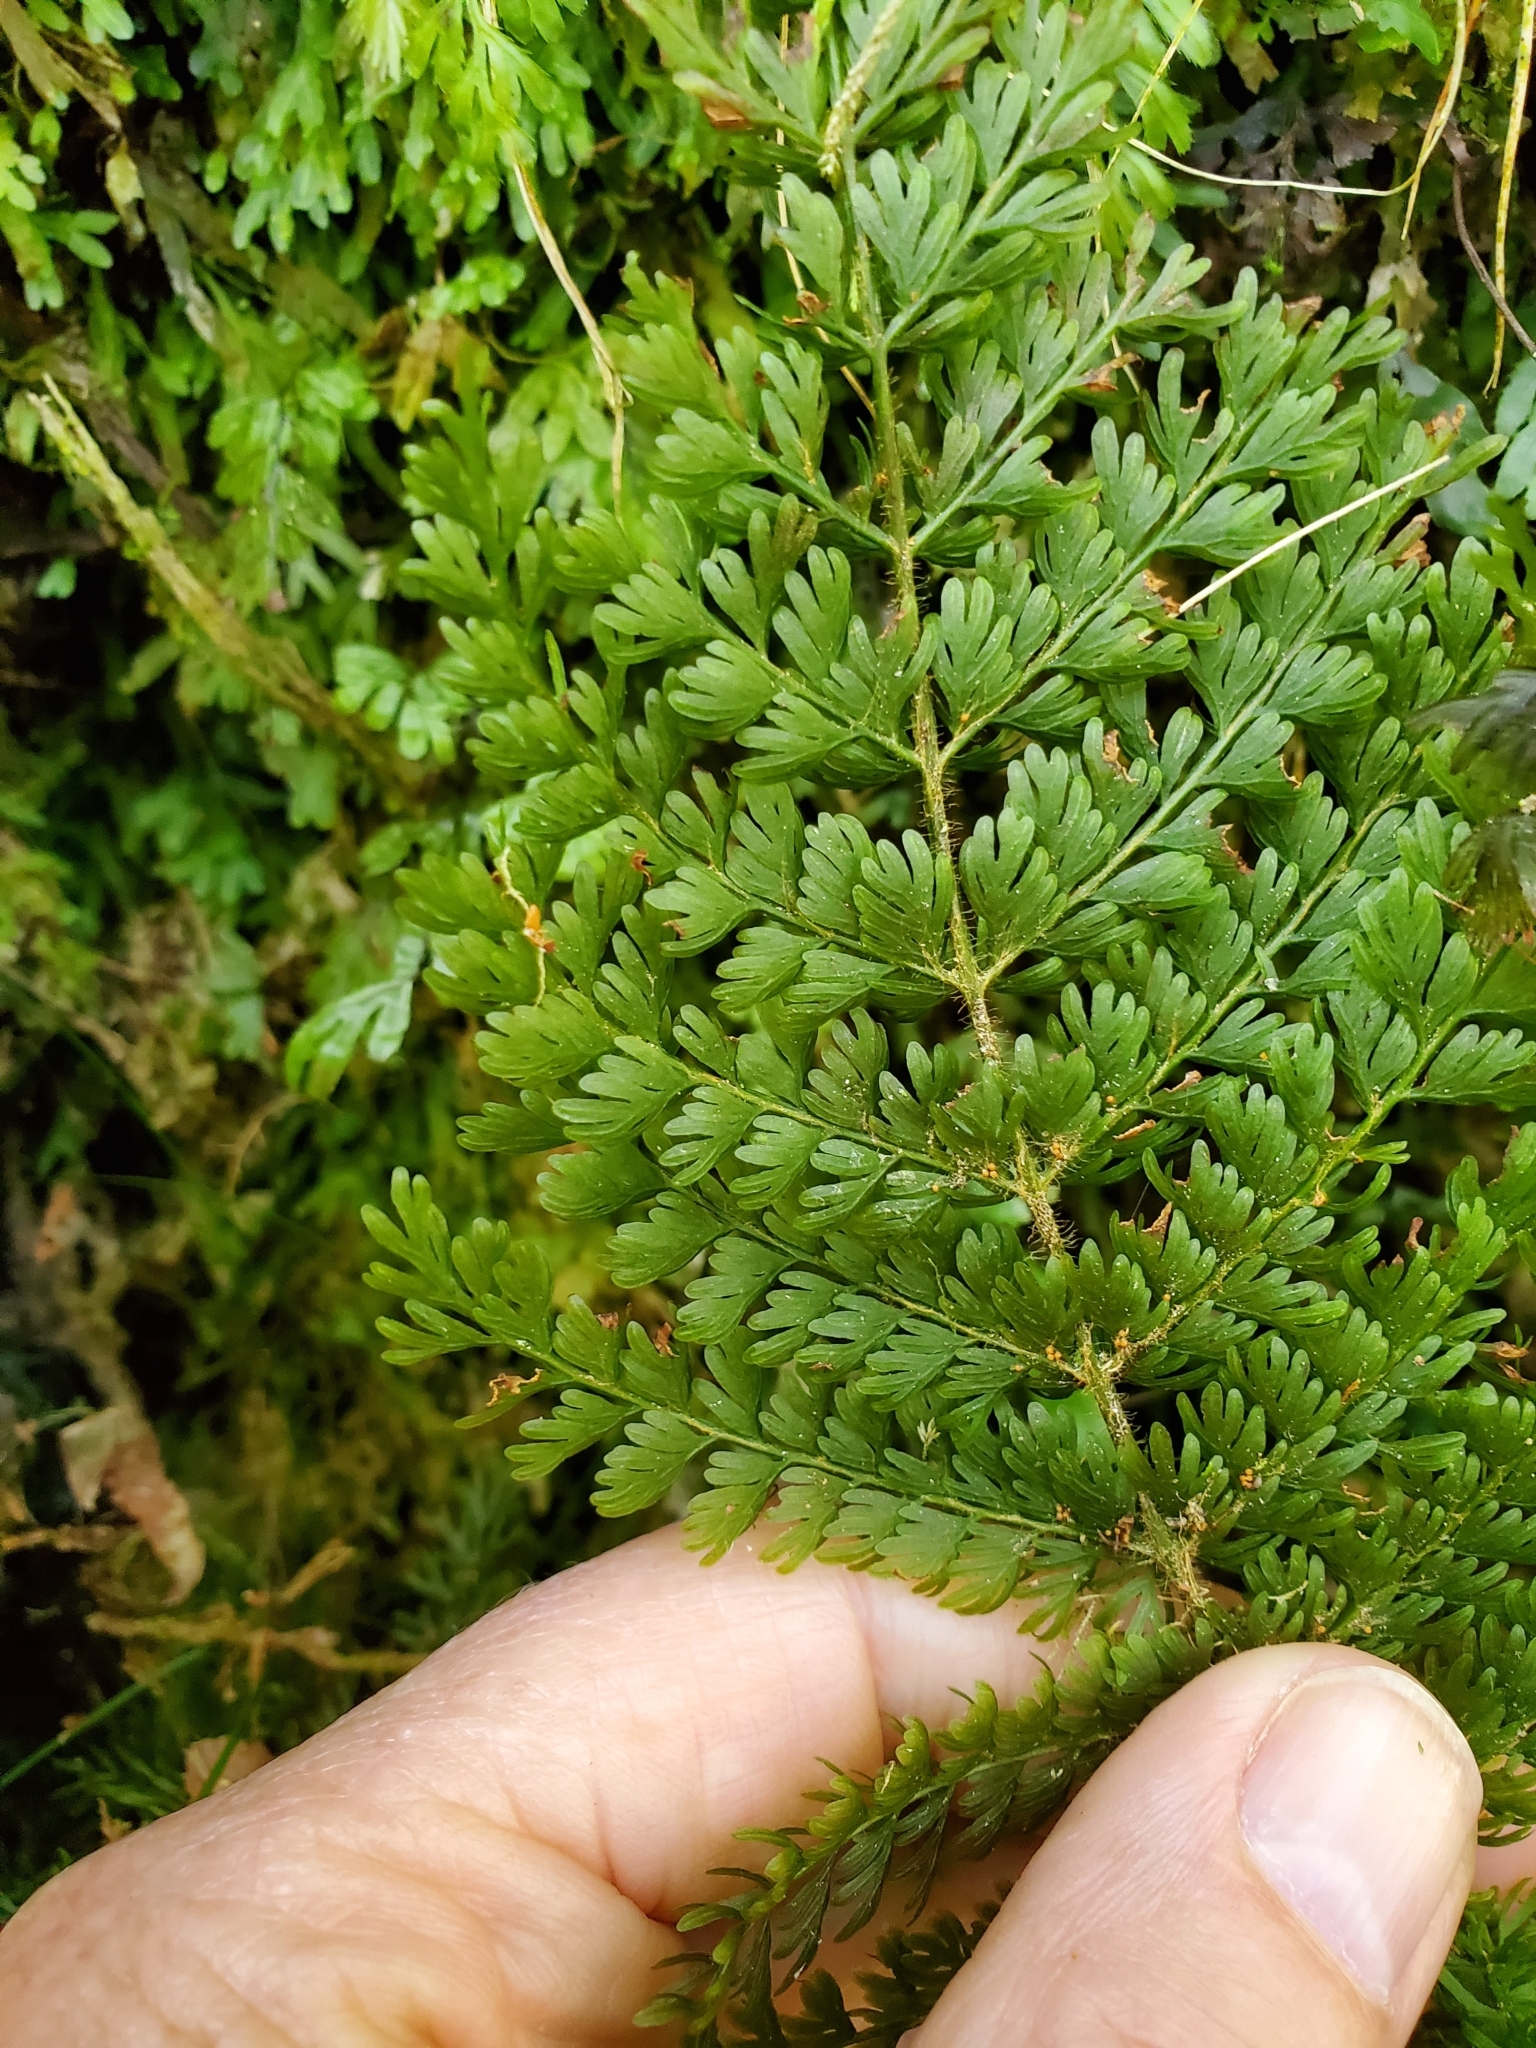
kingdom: Plantae
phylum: Tracheophyta
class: Polypodiopsida
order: Osmundales
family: Osmundaceae
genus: Leptopteris
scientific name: Leptopteris superba
